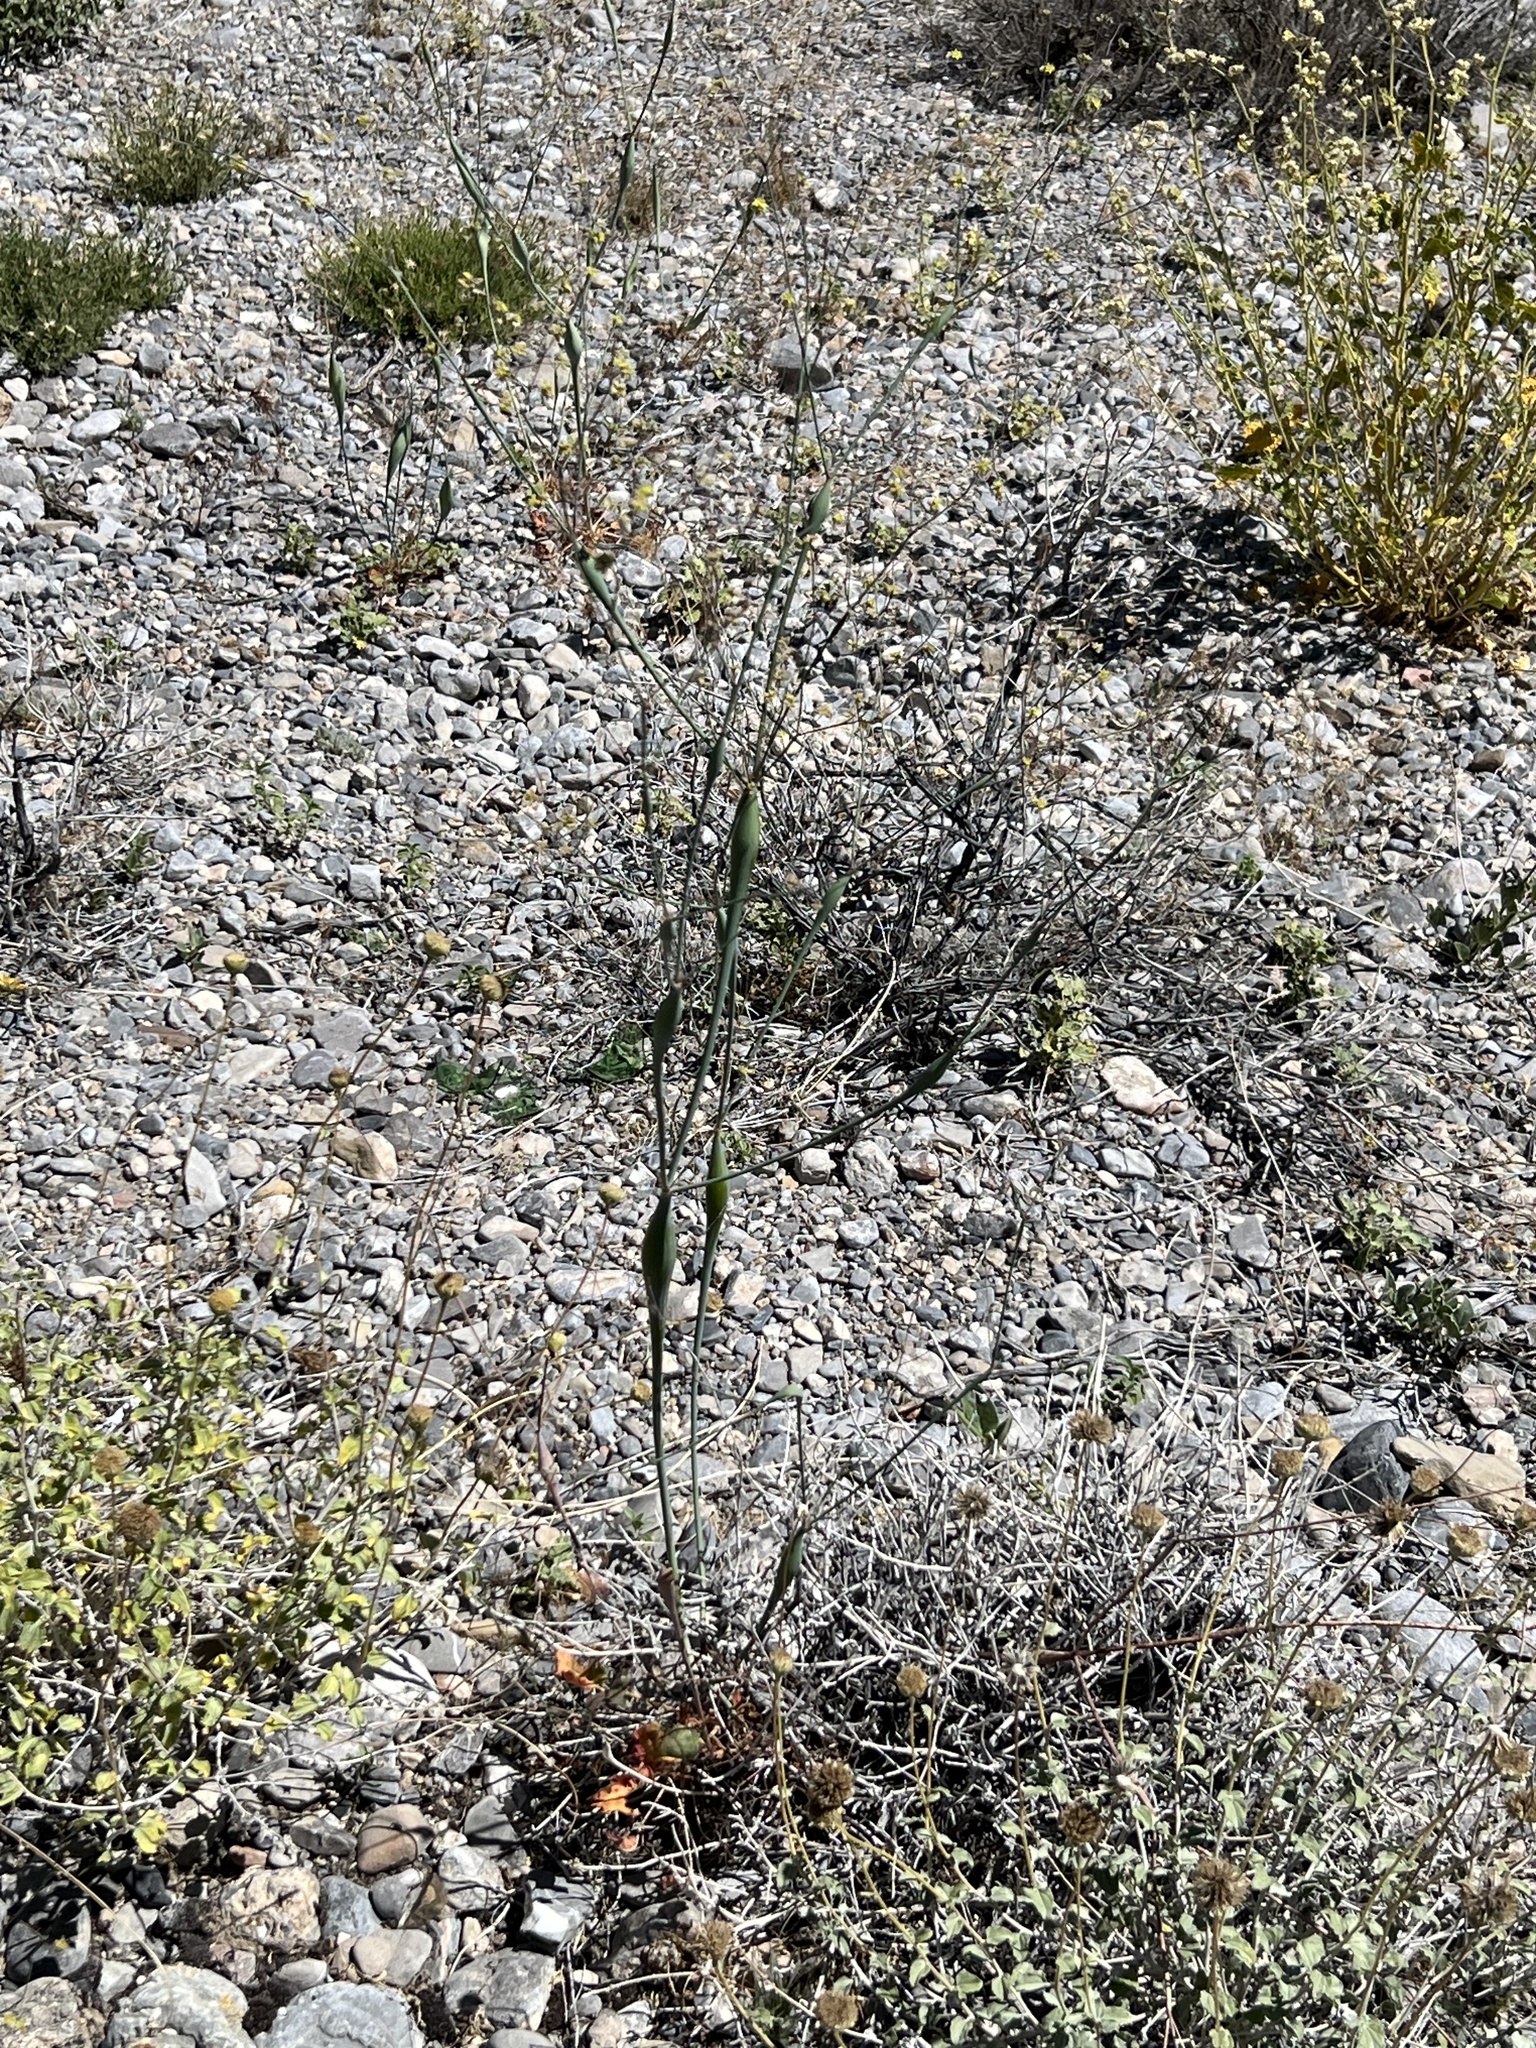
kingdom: Plantae
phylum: Tracheophyta
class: Magnoliopsida
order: Caryophyllales
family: Polygonaceae
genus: Eriogonum
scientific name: Eriogonum inflatum
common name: Desert trumpet
